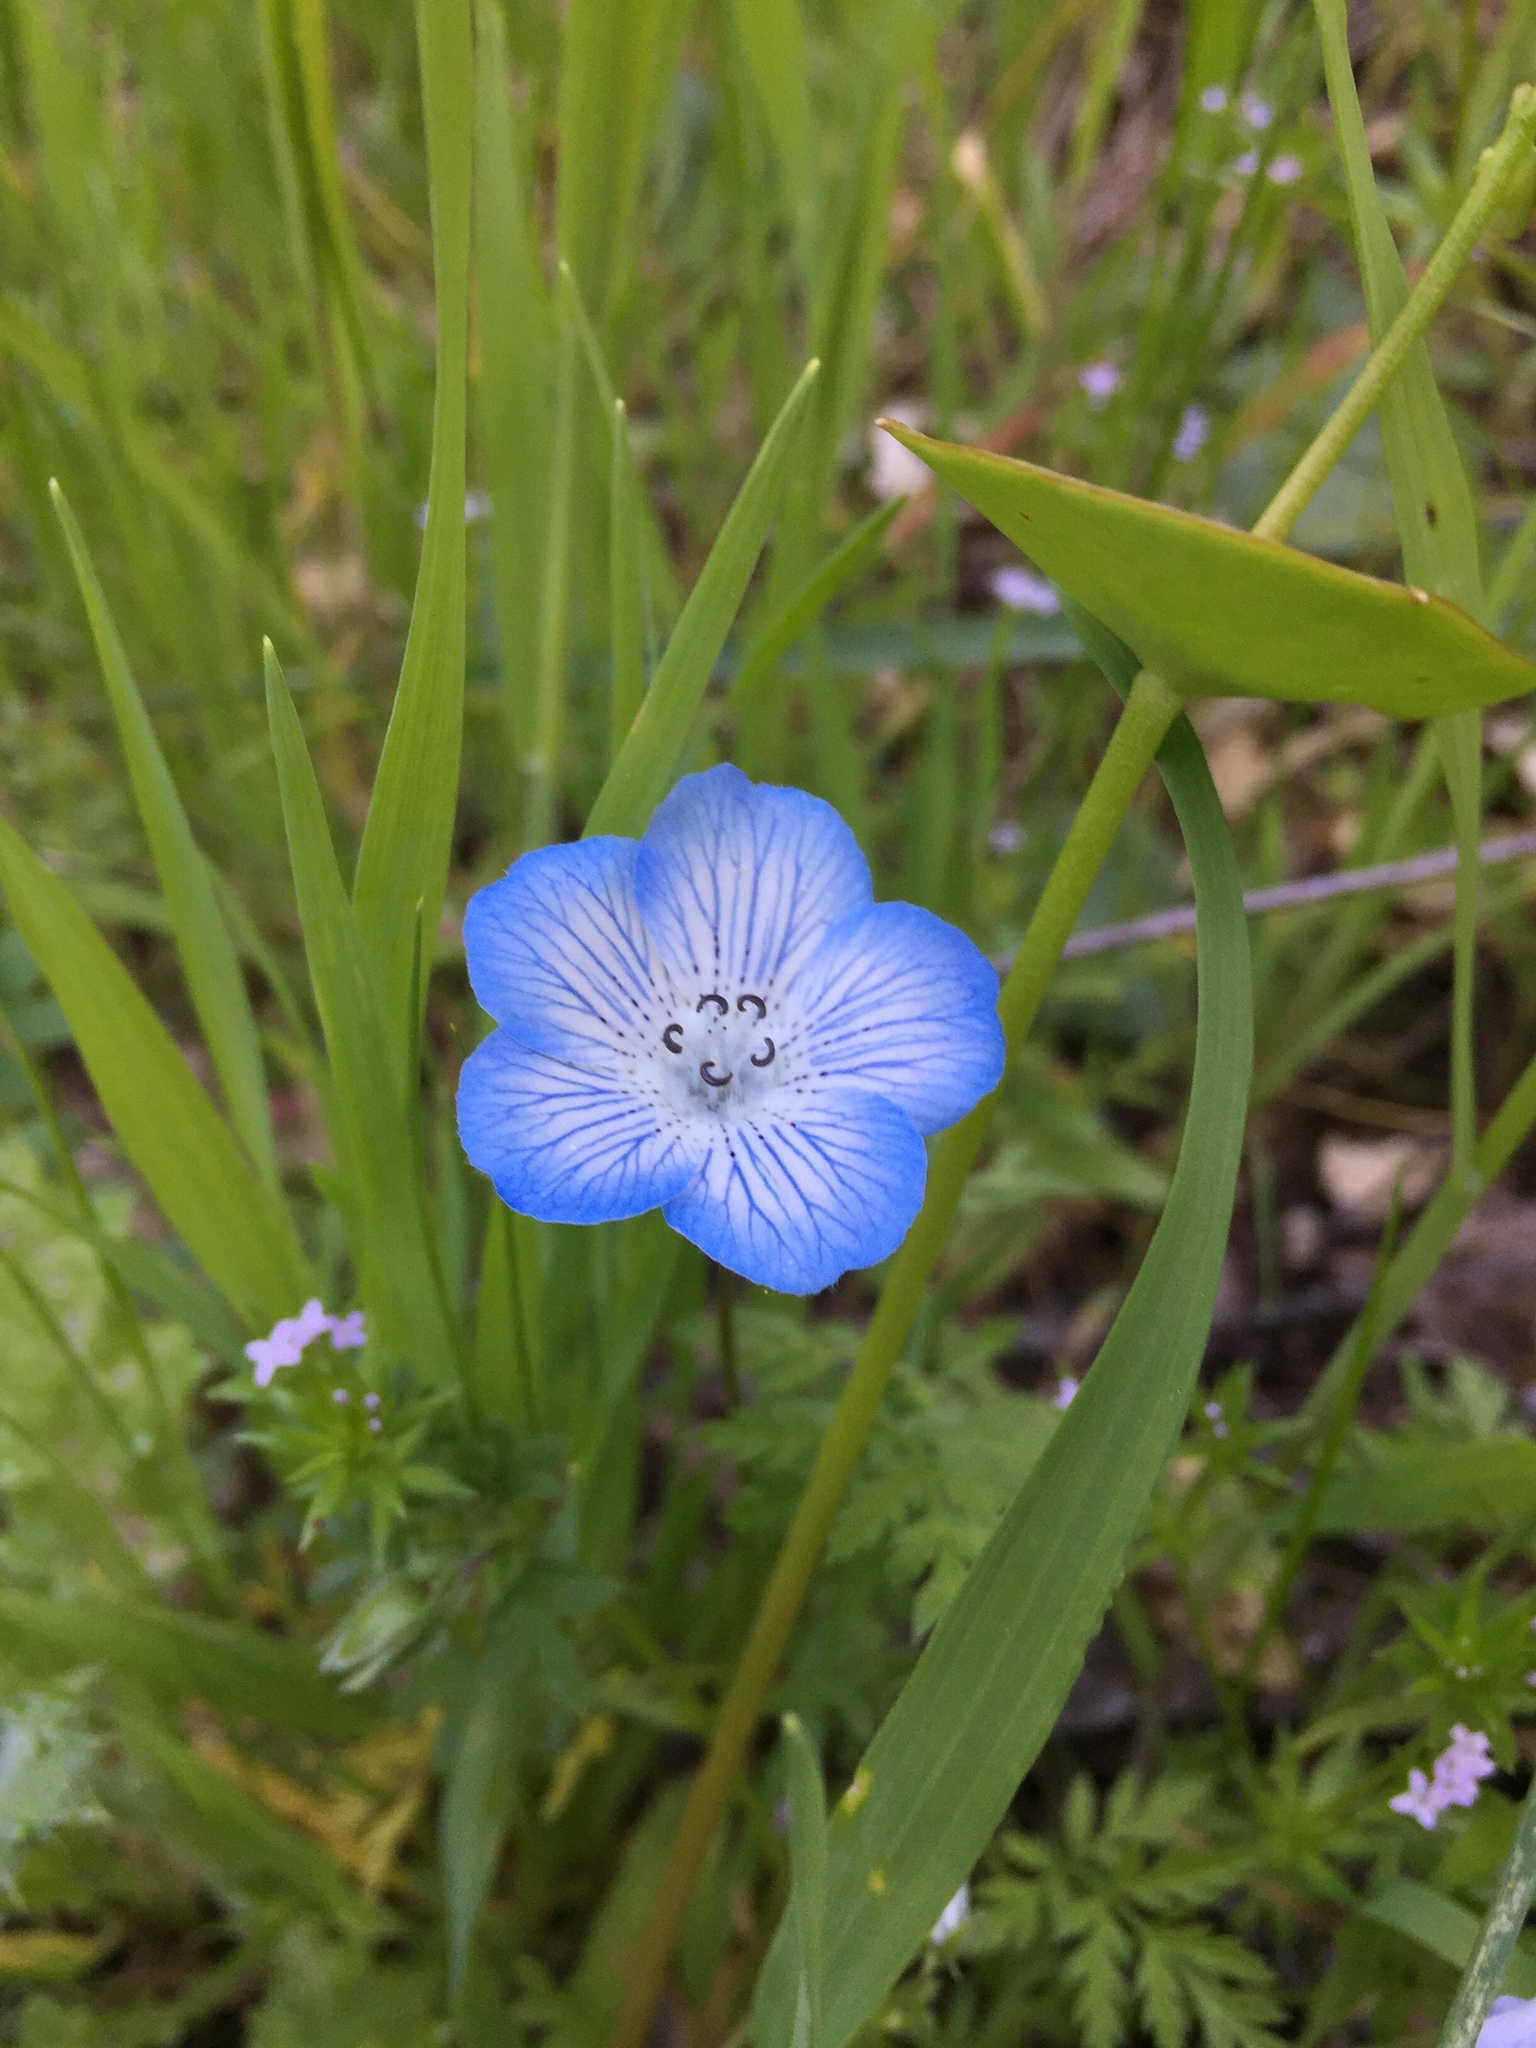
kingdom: Plantae
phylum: Tracheophyta
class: Magnoliopsida
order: Boraginales
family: Hydrophyllaceae
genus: Nemophila
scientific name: Nemophila menziesii
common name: Baby's-blue-eyes
